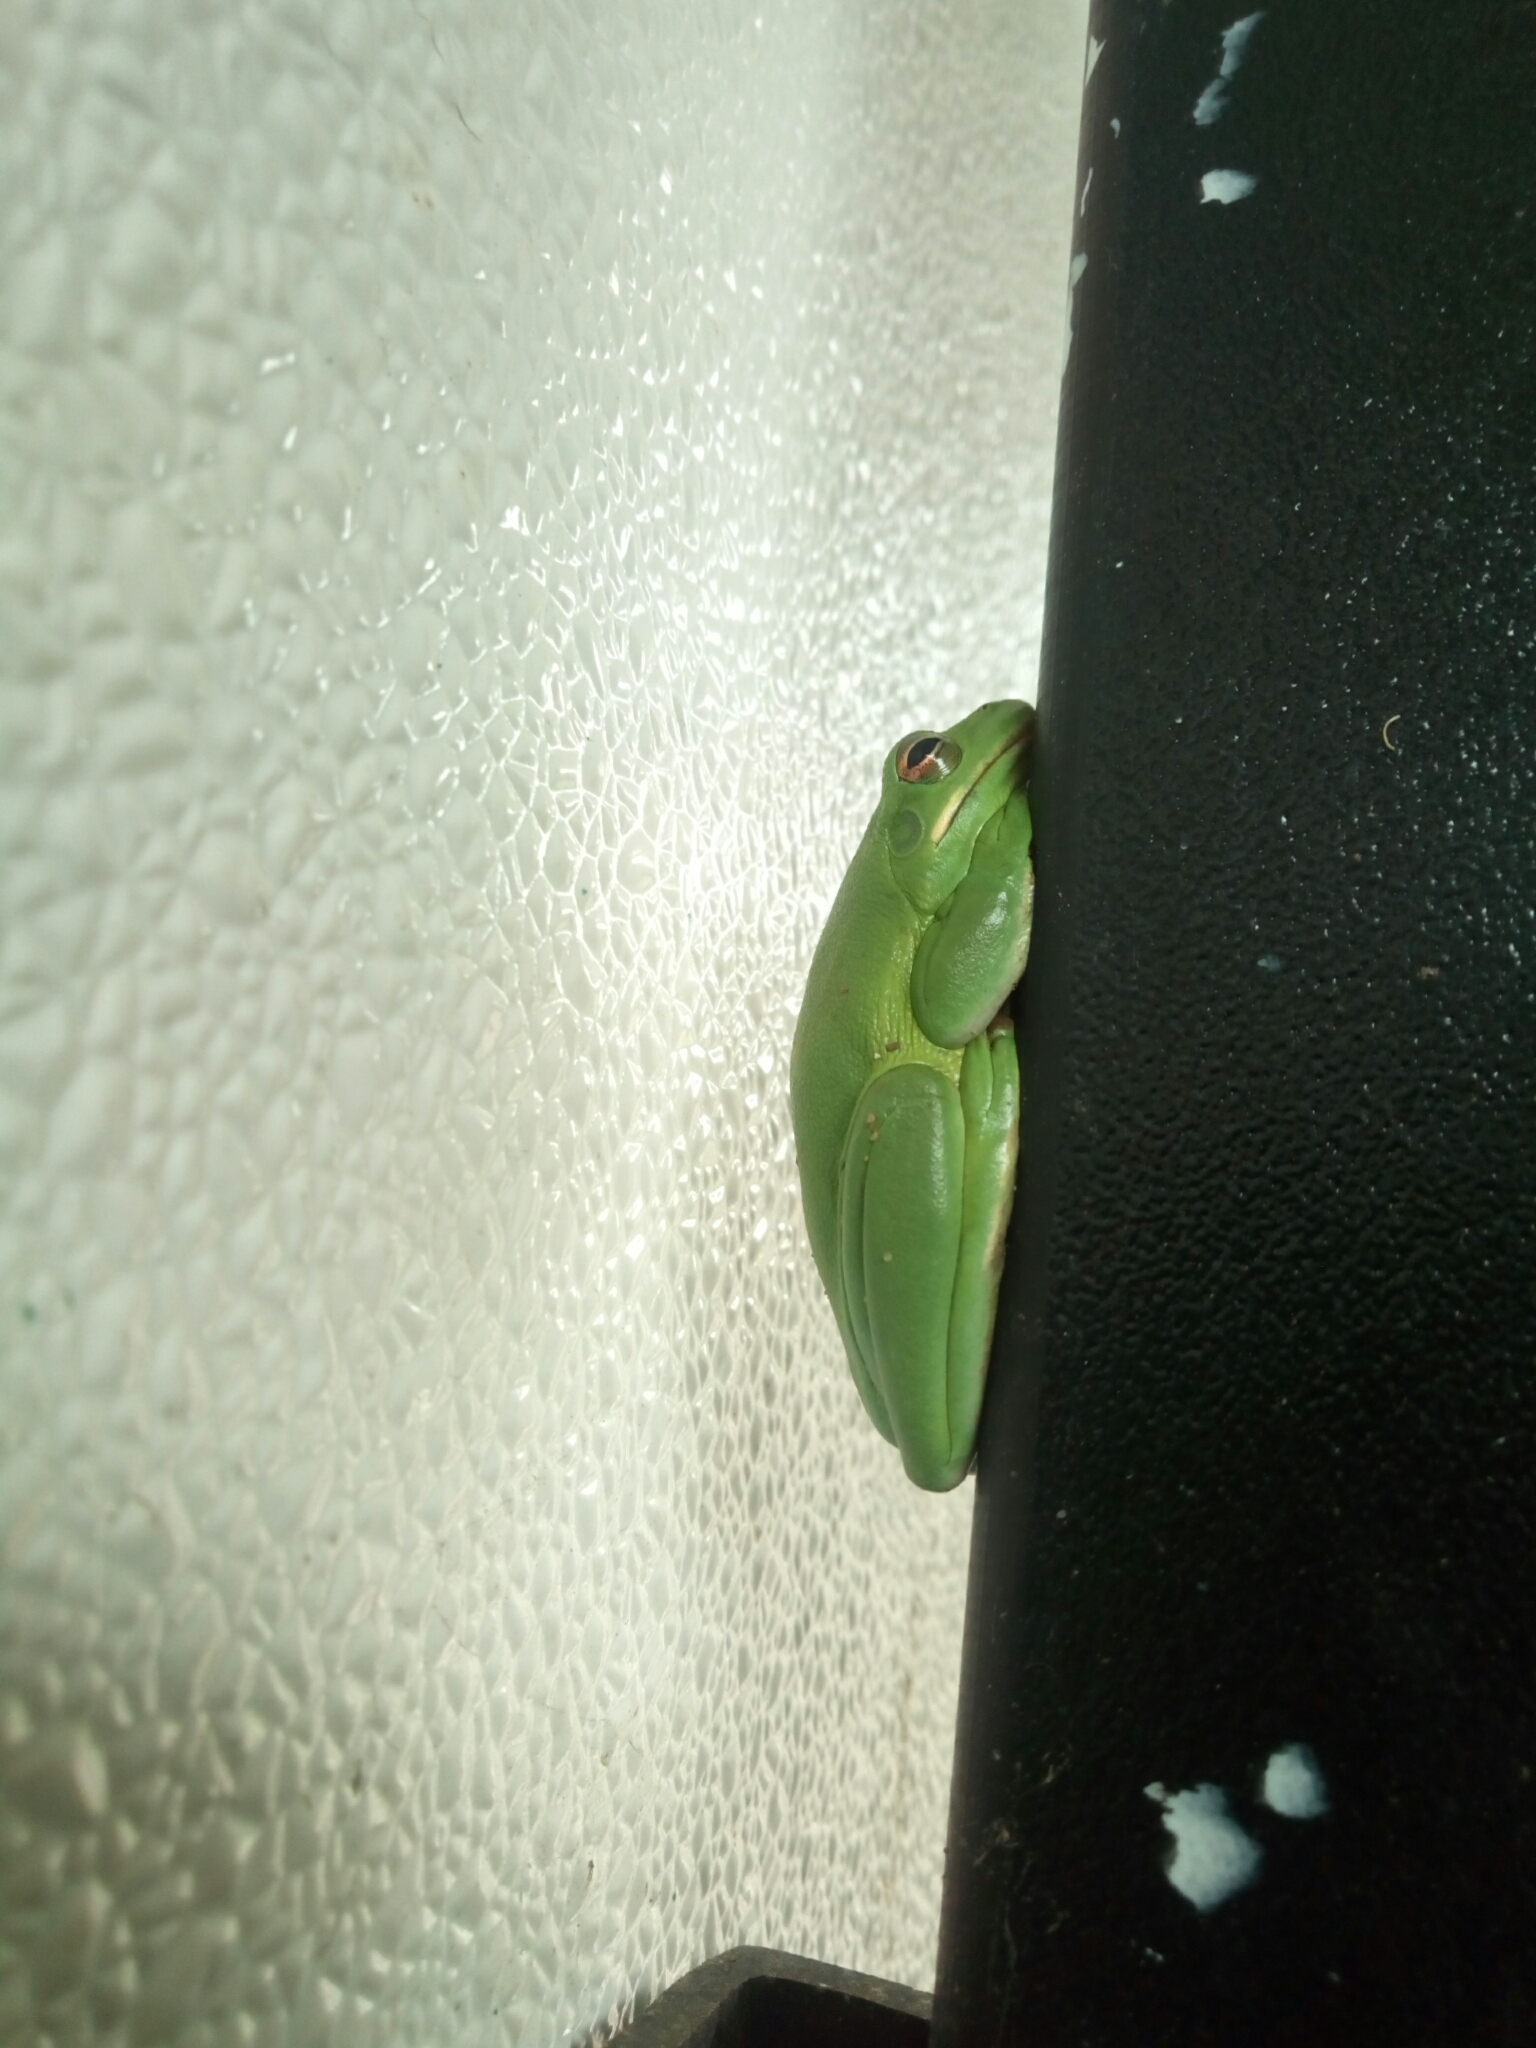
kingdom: Animalia
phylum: Chordata
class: Amphibia
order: Anura
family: Hylidae
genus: Dryophytes
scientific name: Dryophytes cinereus
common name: Green treefrog
